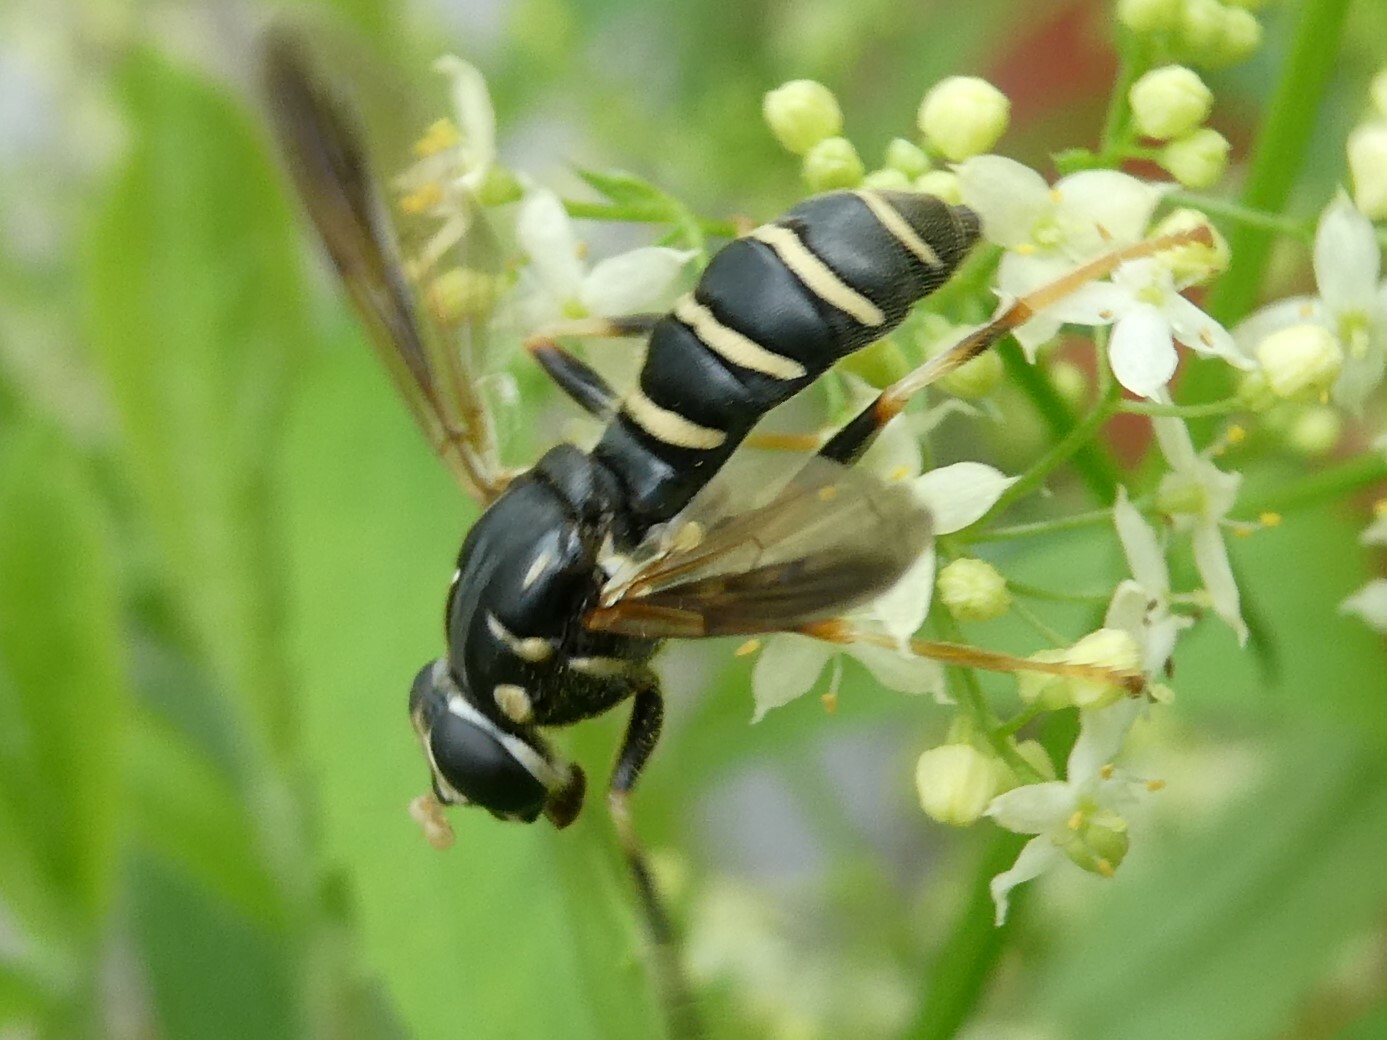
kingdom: Animalia
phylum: Arthropoda
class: Insecta
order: Diptera
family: Syrphidae
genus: Temnostoma
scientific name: Temnostoma
